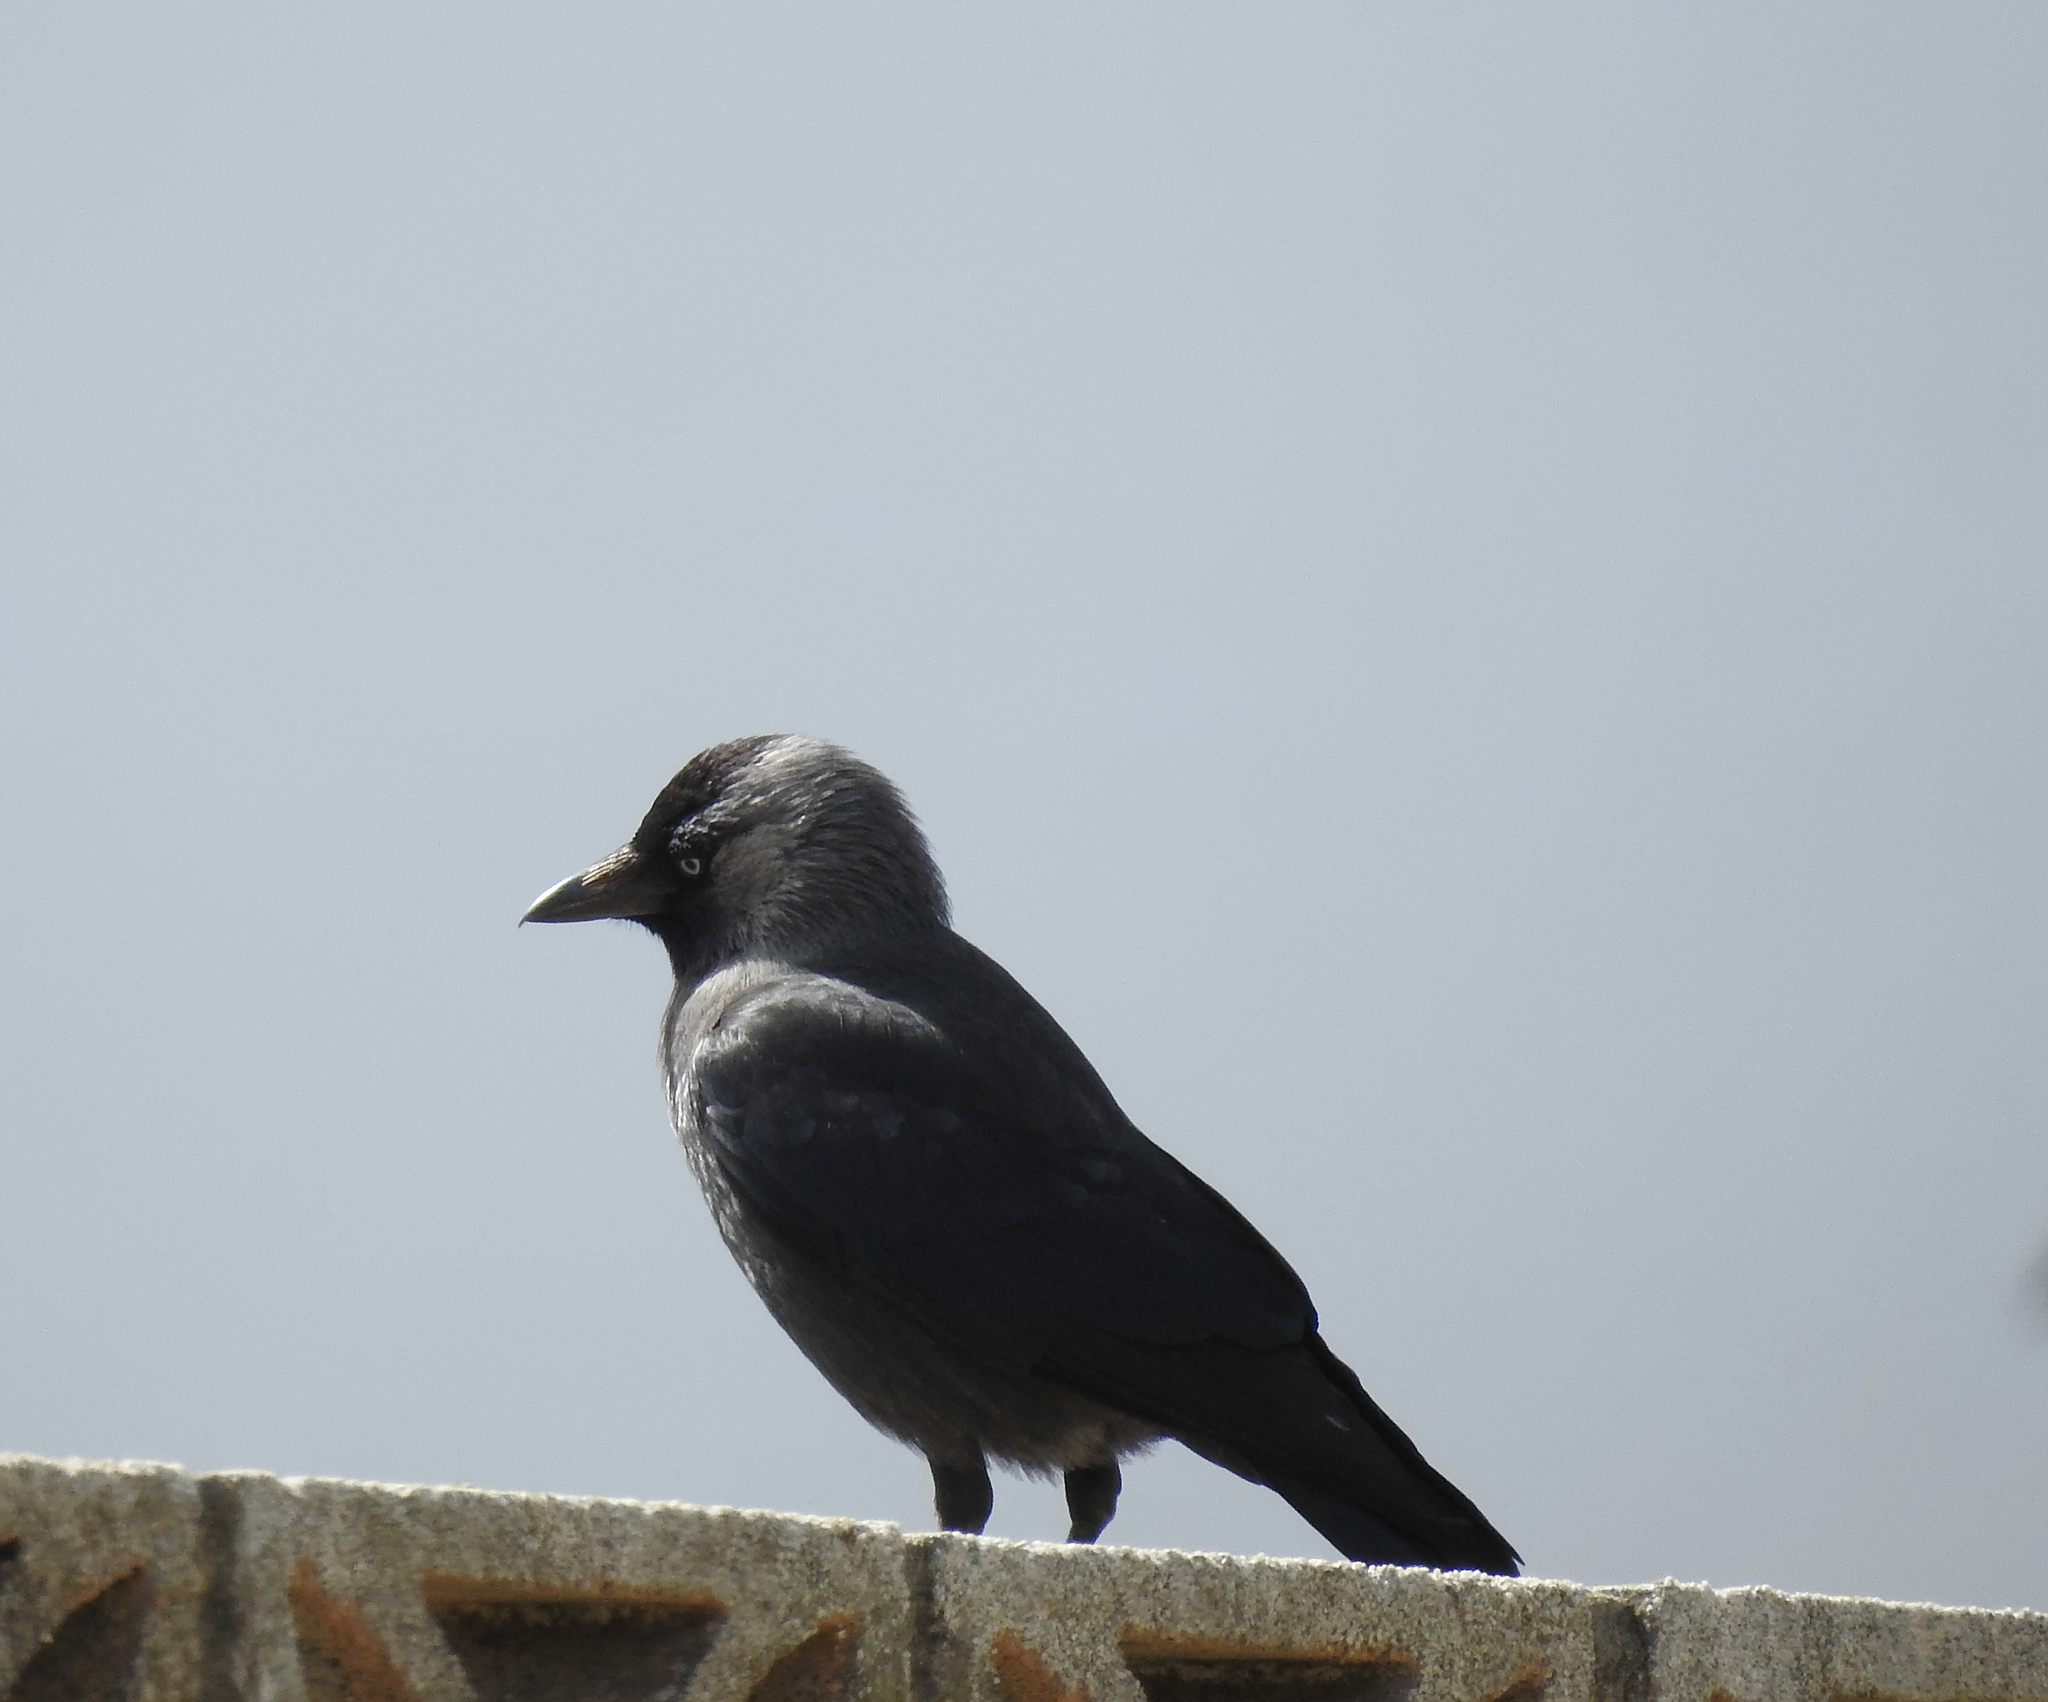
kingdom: Animalia
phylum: Chordata
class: Aves
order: Passeriformes
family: Corvidae
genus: Coloeus
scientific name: Coloeus monedula
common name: Western jackdaw
